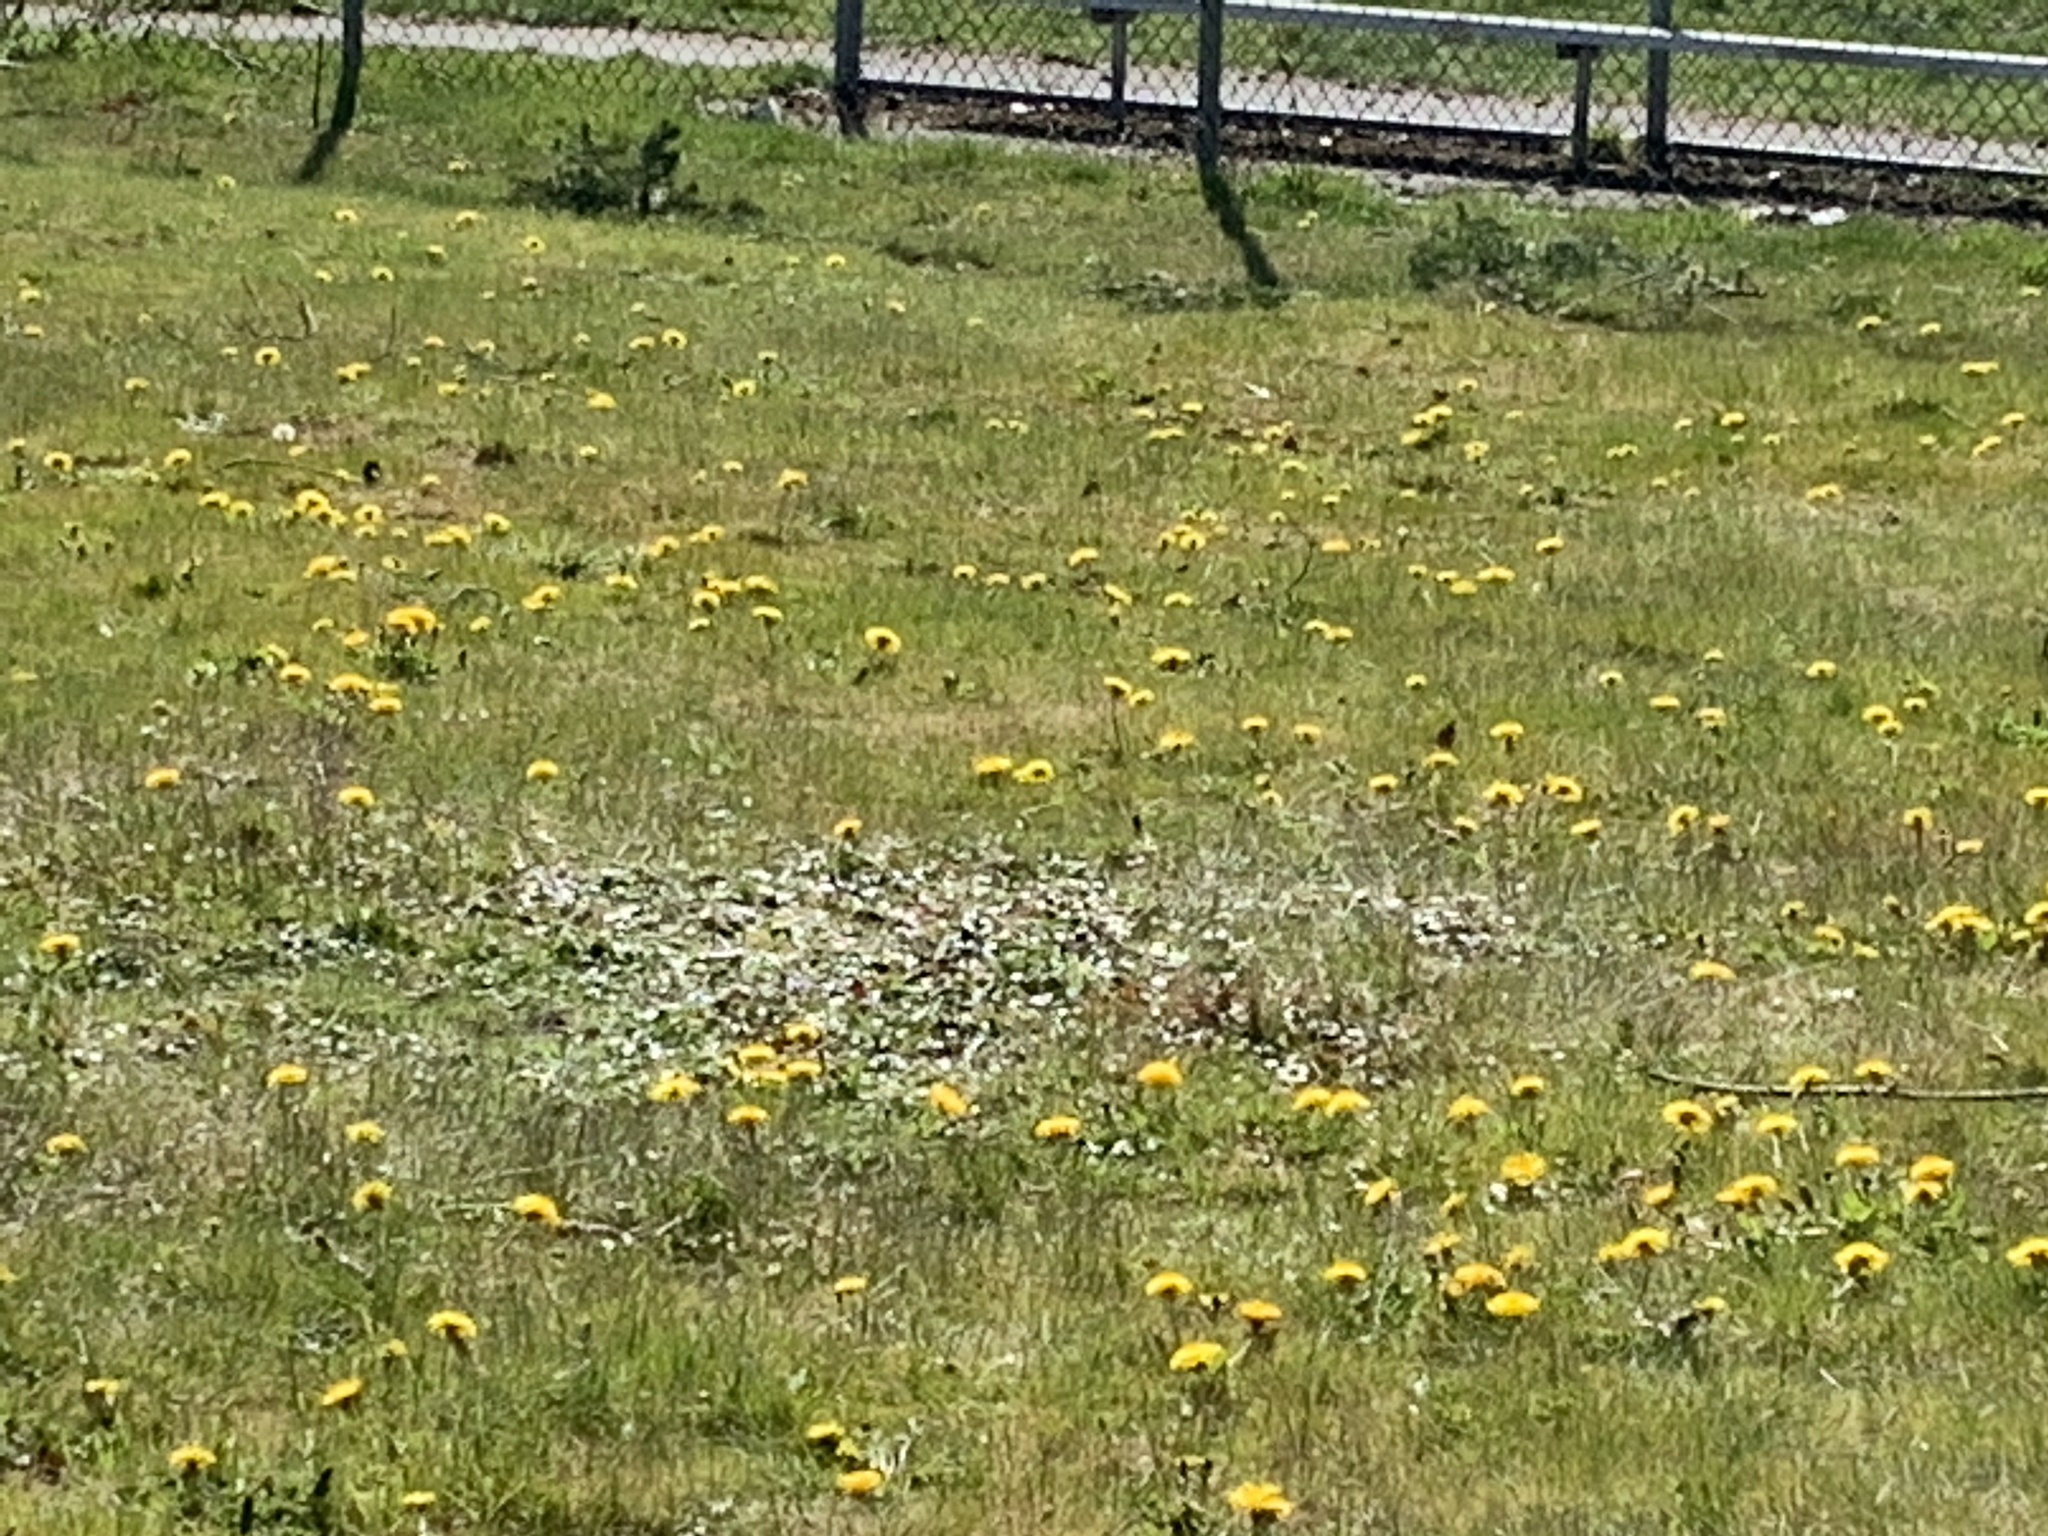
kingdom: Plantae
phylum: Tracheophyta
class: Magnoliopsida
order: Rosales
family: Rosaceae
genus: Fragaria
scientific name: Fragaria chiloensis
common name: Beach strawberry
